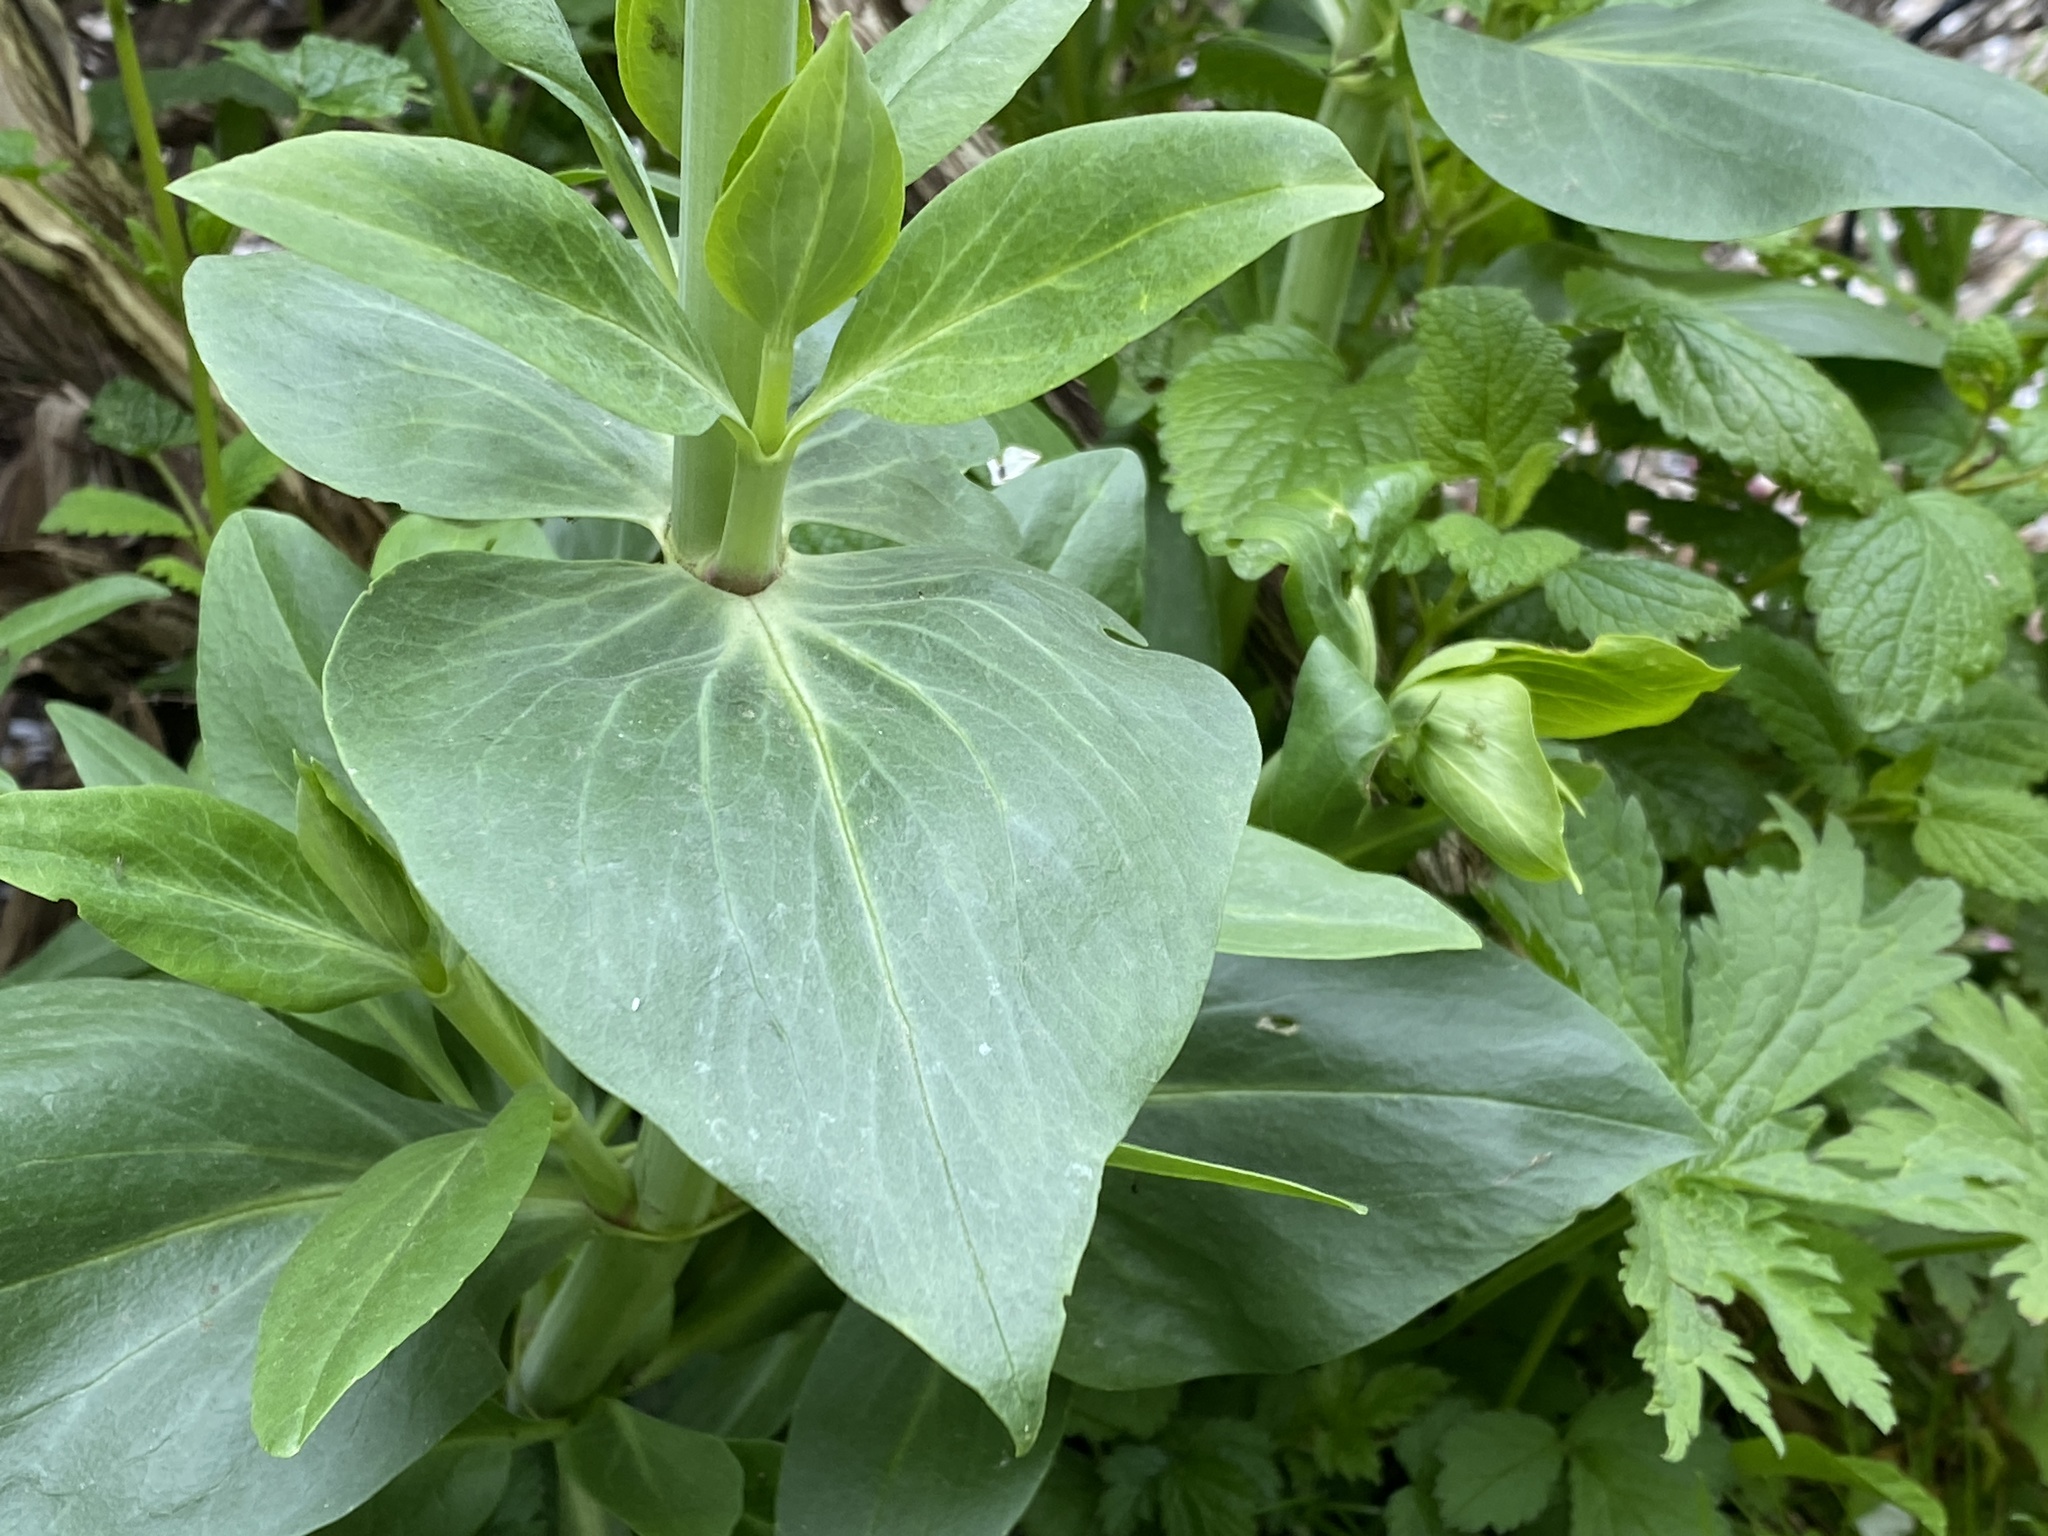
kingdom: Plantae
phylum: Tracheophyta
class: Magnoliopsida
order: Dipsacales
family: Caprifoliaceae
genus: Centranthus
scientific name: Centranthus ruber
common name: Red valerian
